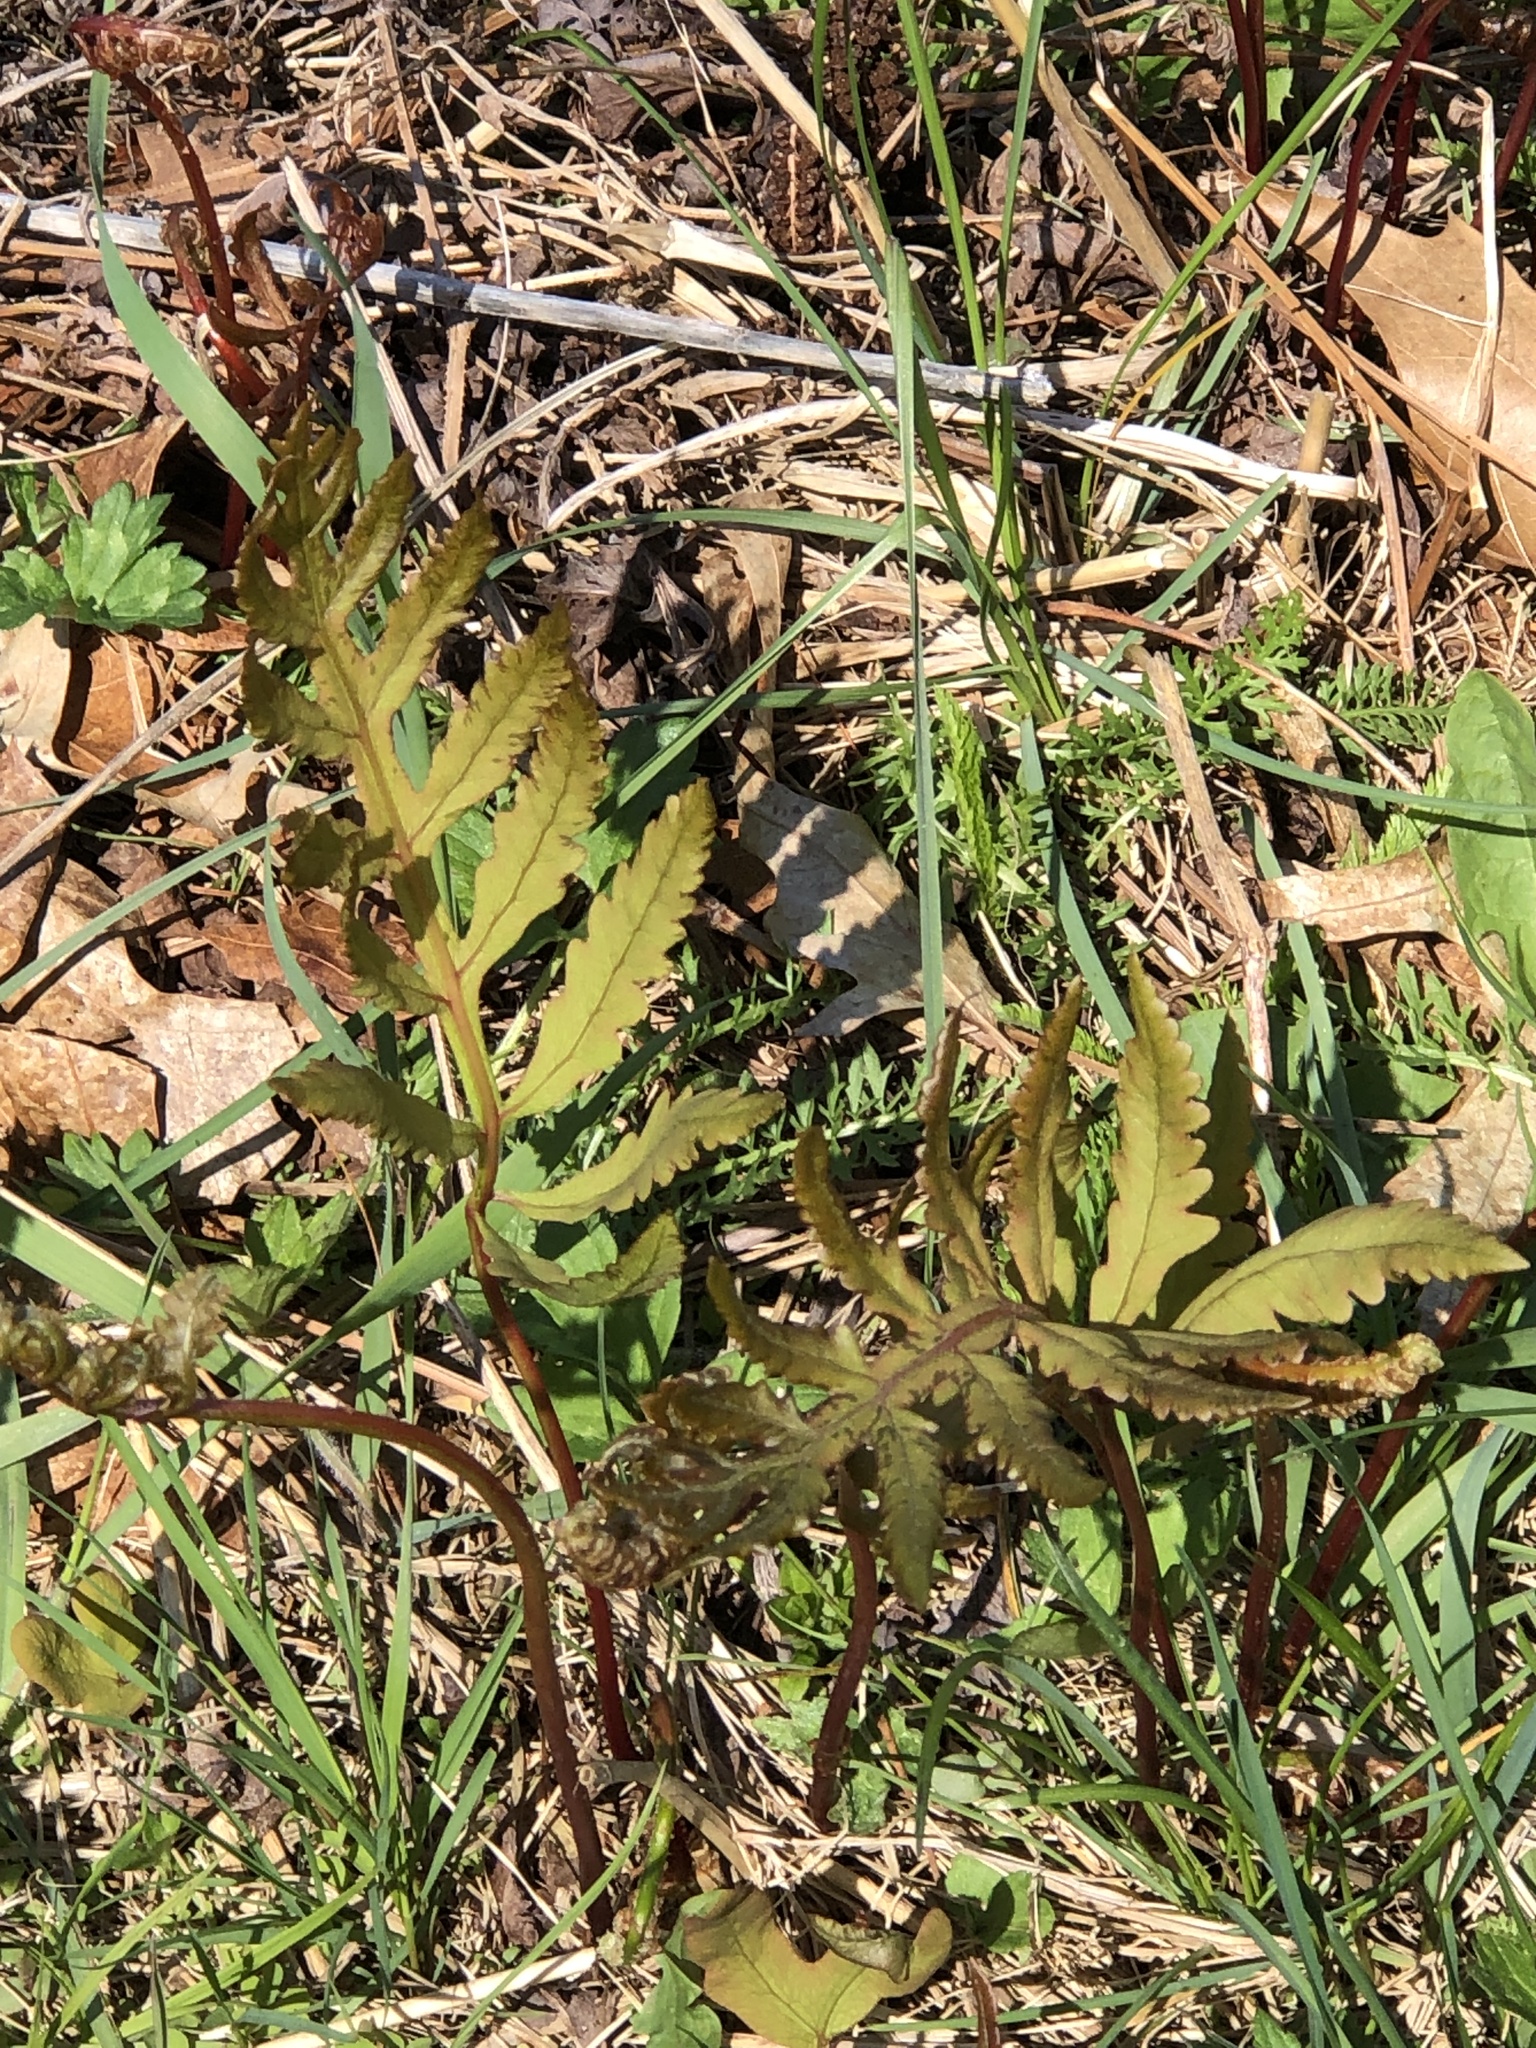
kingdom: Plantae
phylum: Tracheophyta
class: Polypodiopsida
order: Polypodiales
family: Onocleaceae
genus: Onoclea
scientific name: Onoclea sensibilis
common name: Sensitive fern
